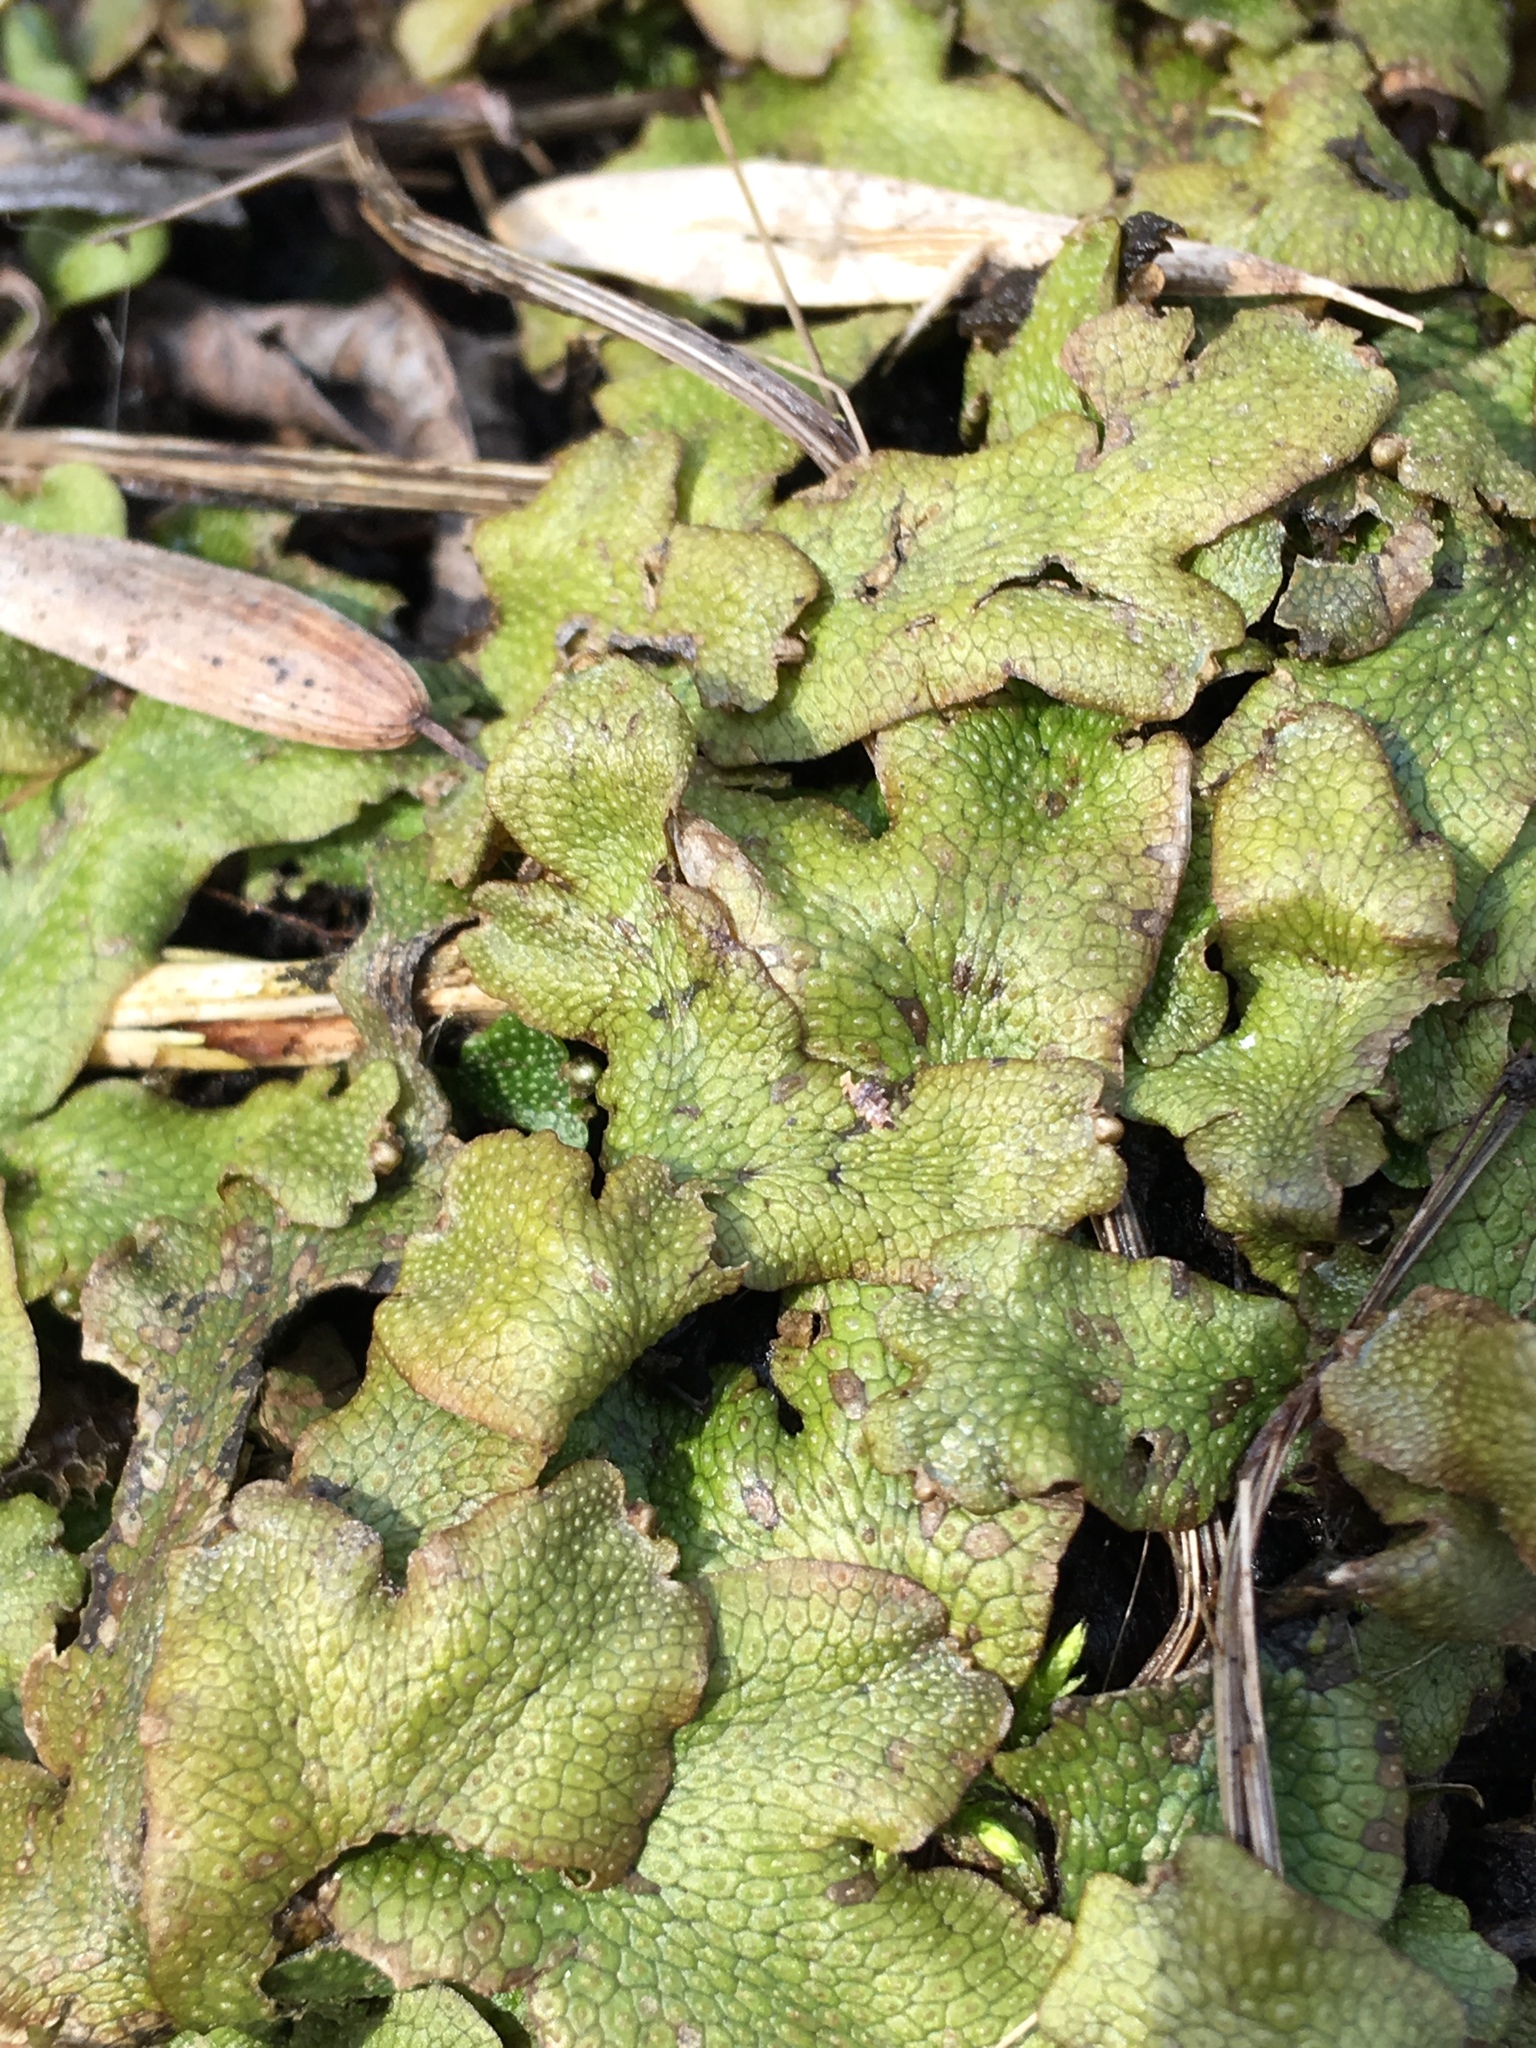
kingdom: Plantae
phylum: Marchantiophyta
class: Marchantiopsida
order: Marchantiales
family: Conocephalaceae
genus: Conocephalum
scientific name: Conocephalum salebrosum
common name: Cat-tongue liverwort
